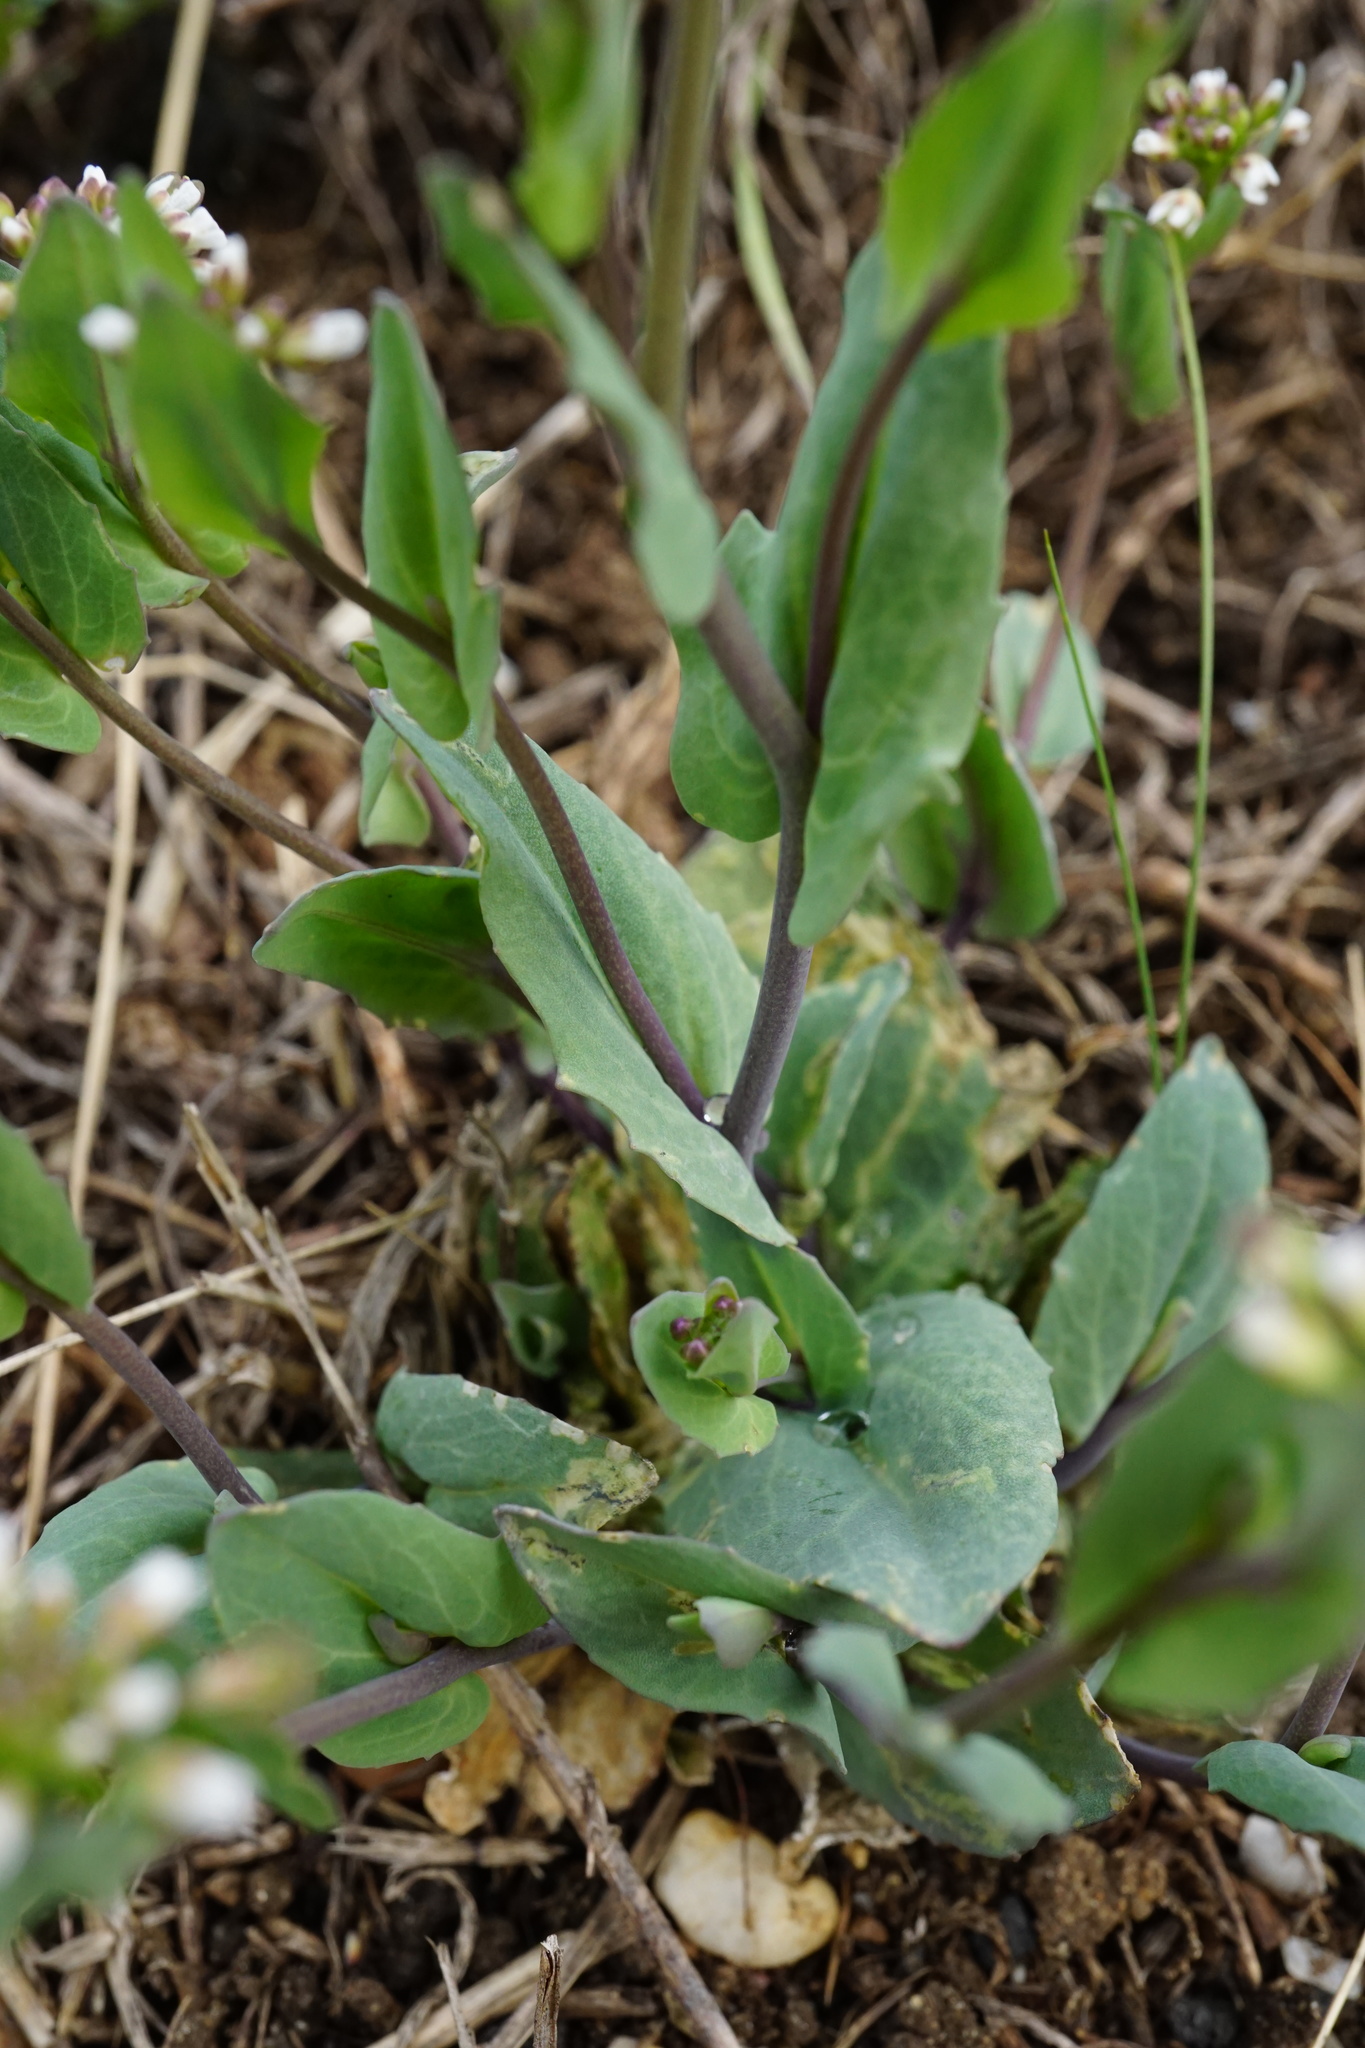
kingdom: Plantae
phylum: Tracheophyta
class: Magnoliopsida
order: Brassicales
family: Brassicaceae
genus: Noccaea
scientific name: Noccaea perfoliata
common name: Perfoliate pennycress
